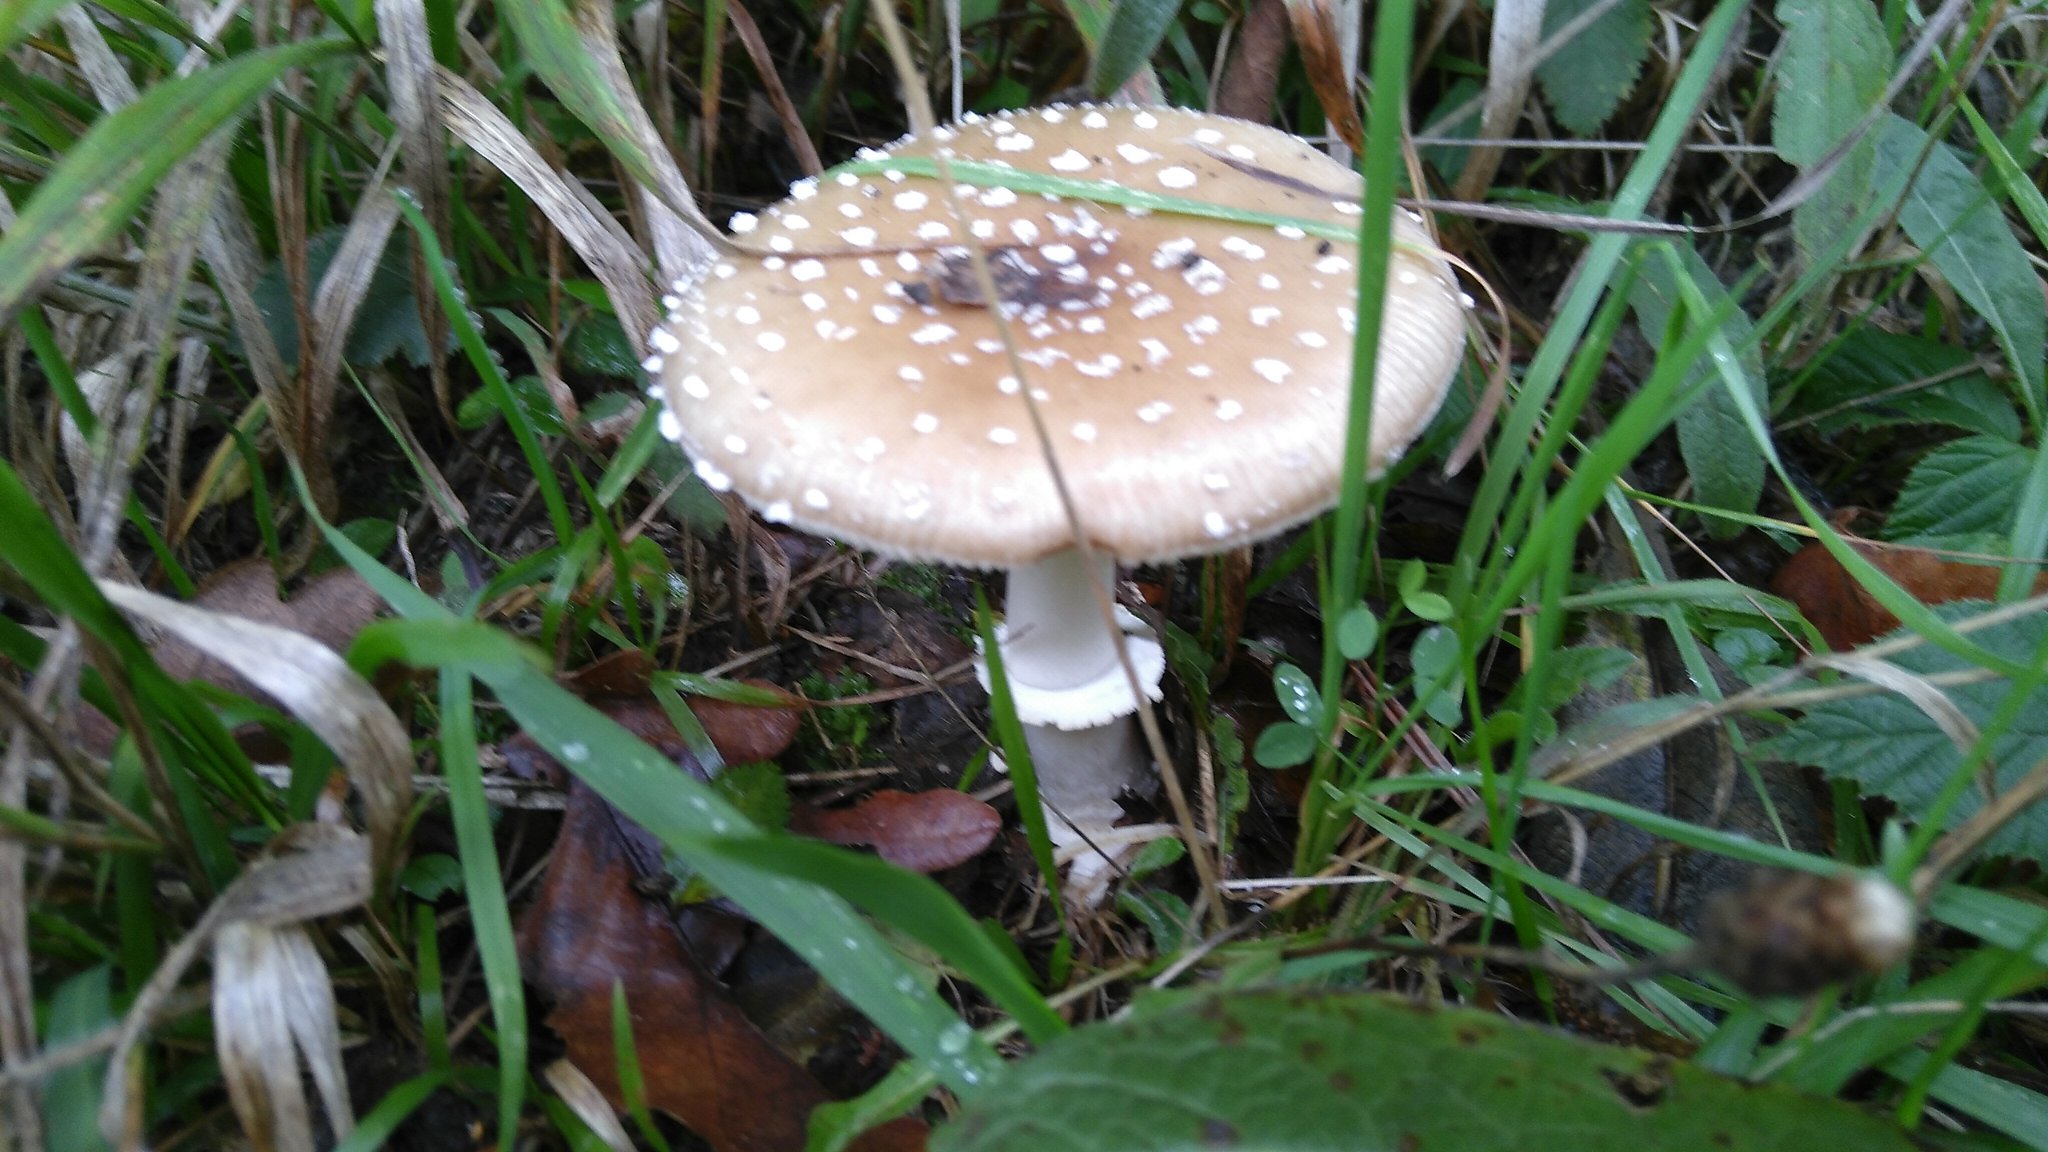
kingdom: Fungi
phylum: Basidiomycota
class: Agaricomycetes
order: Agaricales
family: Amanitaceae
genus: Amanita
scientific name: Amanita pantherina
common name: Panthercap
